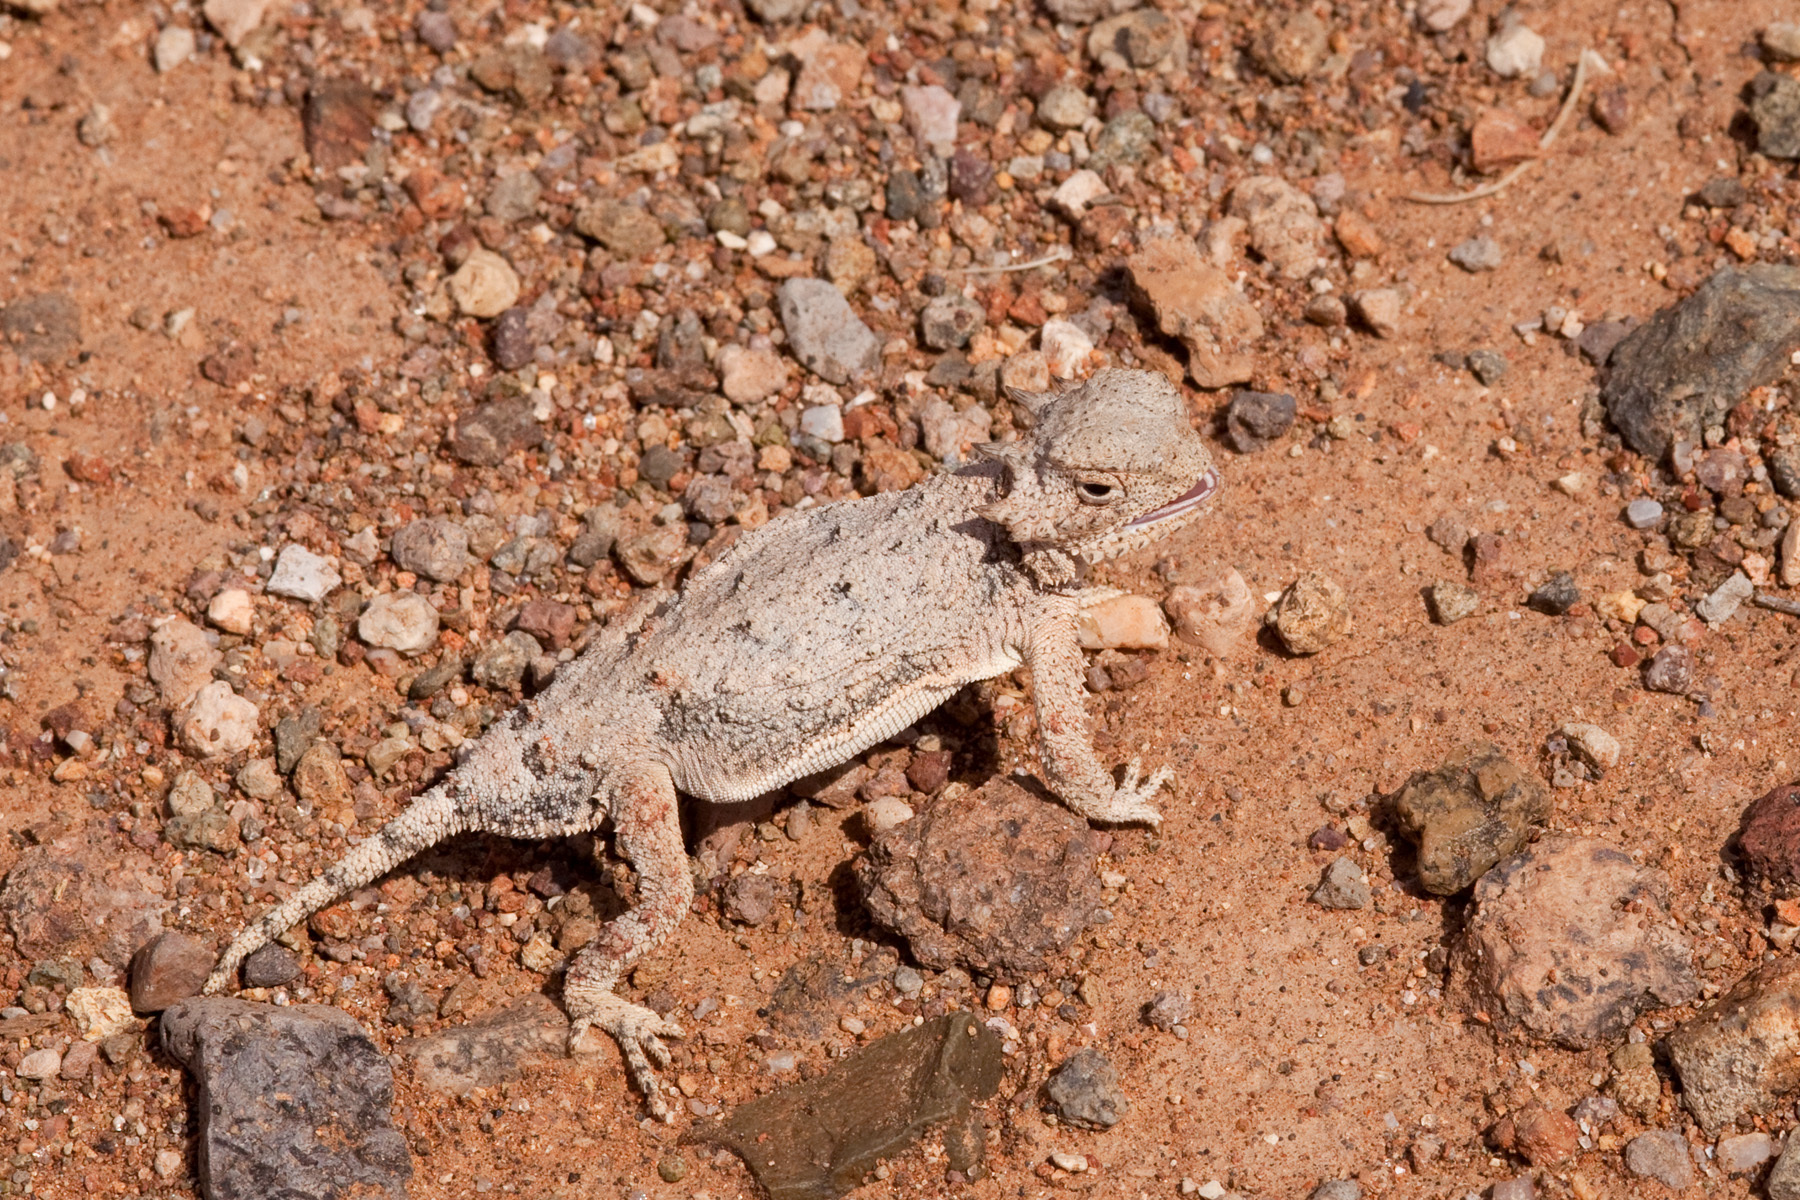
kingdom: Animalia
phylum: Chordata
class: Squamata
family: Phrynosomatidae
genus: Phrynosoma
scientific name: Phrynosoma modestum
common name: Roundtail horned lizard
